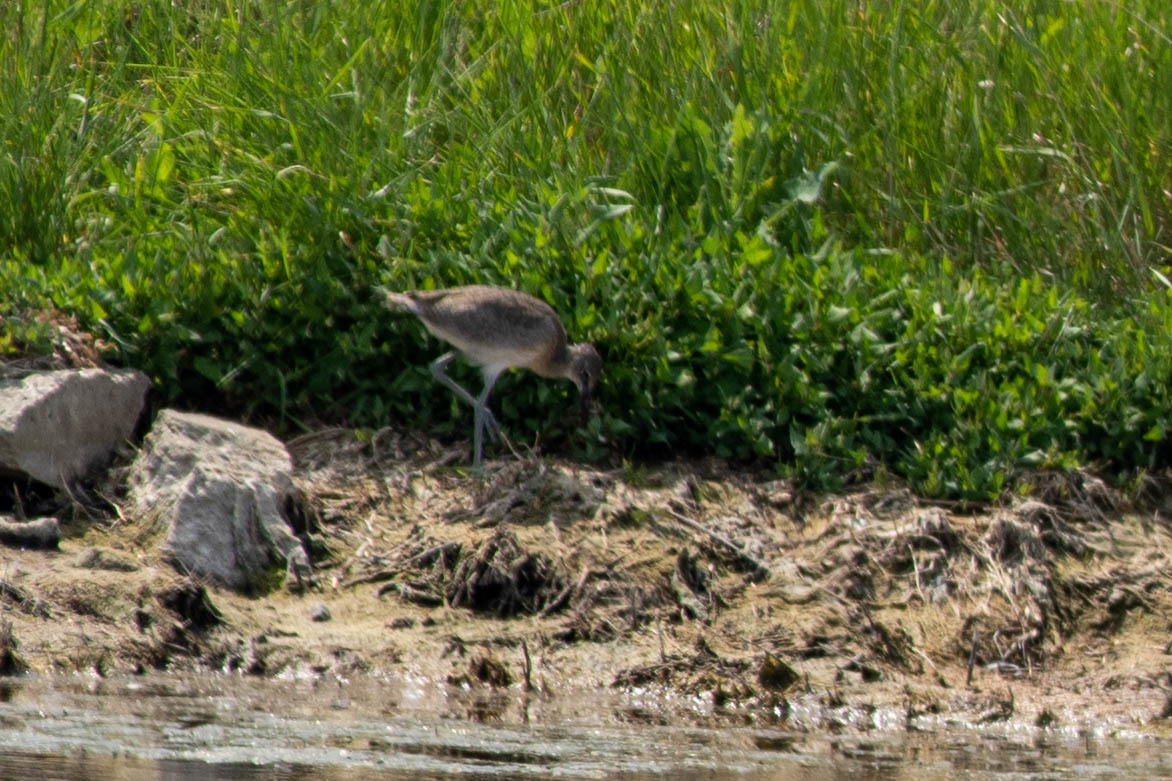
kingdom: Animalia
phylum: Chordata
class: Aves
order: Charadriiformes
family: Scolopacidae
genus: Tringa
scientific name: Tringa semipalmata
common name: Willet
